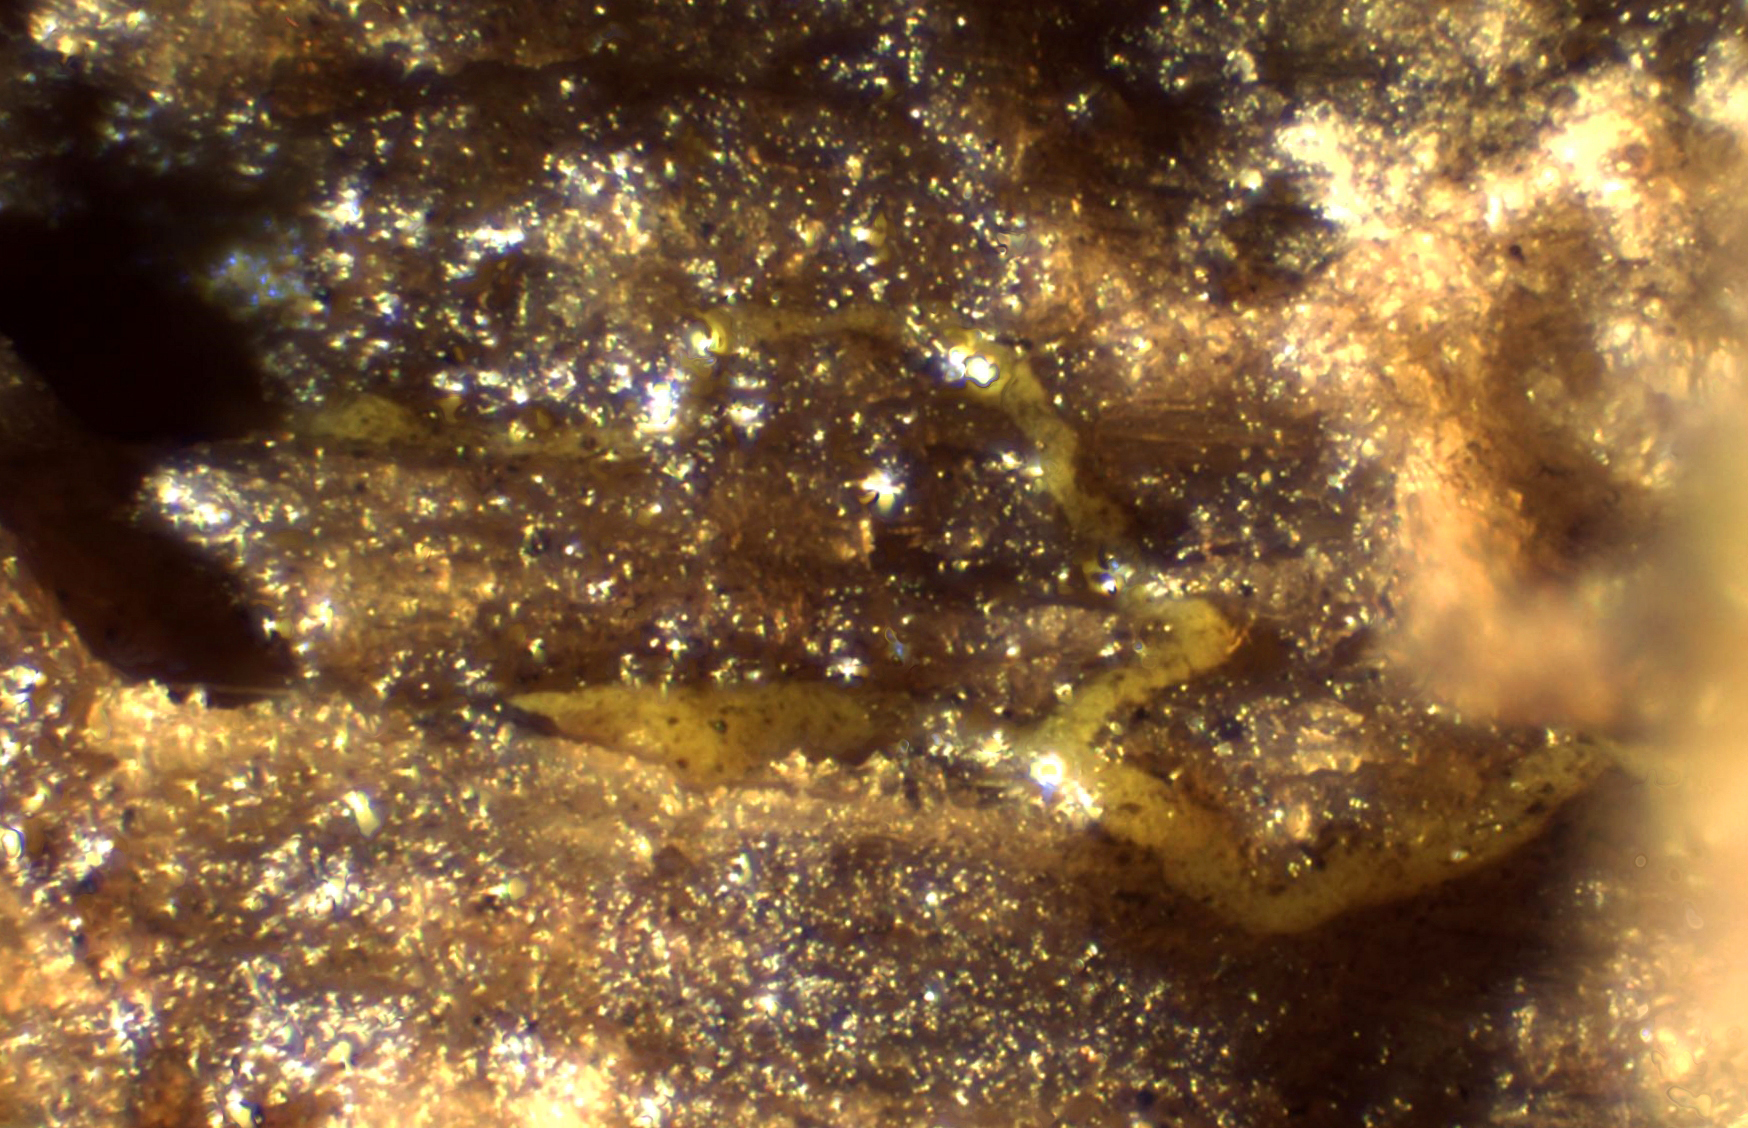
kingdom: Protozoa
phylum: Mycetozoa
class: Myxomycetes
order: Physarales
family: Physaraceae
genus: Physarum
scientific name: Physarum viride
